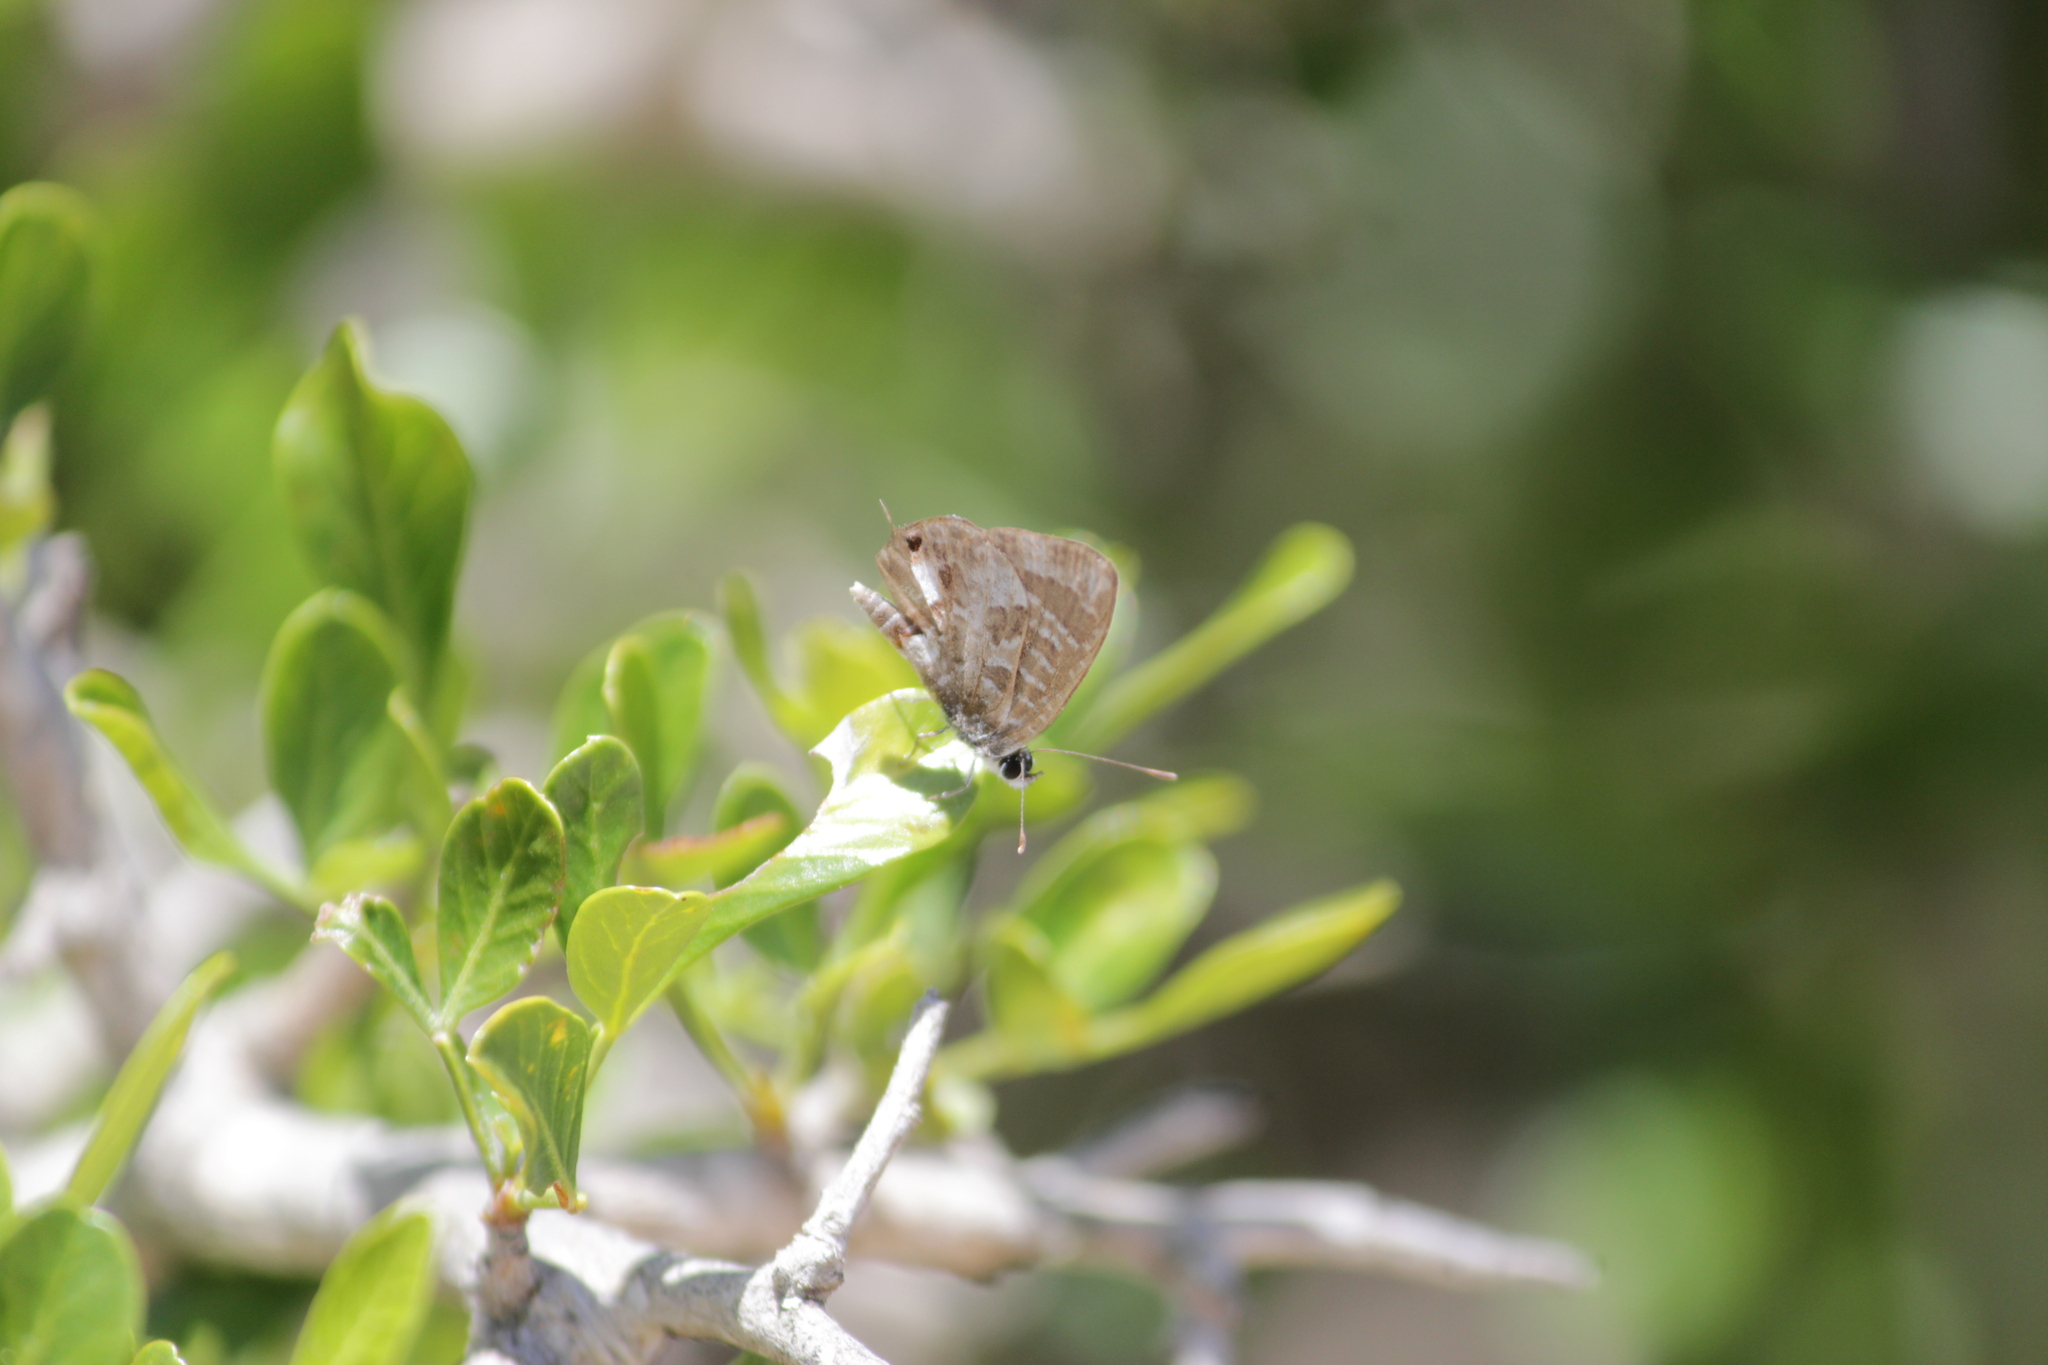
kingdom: Animalia
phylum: Arthropoda
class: Insecta
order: Lepidoptera
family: Lycaenidae
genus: Cacyreus
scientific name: Cacyreus lingeus
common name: Bush bronze
